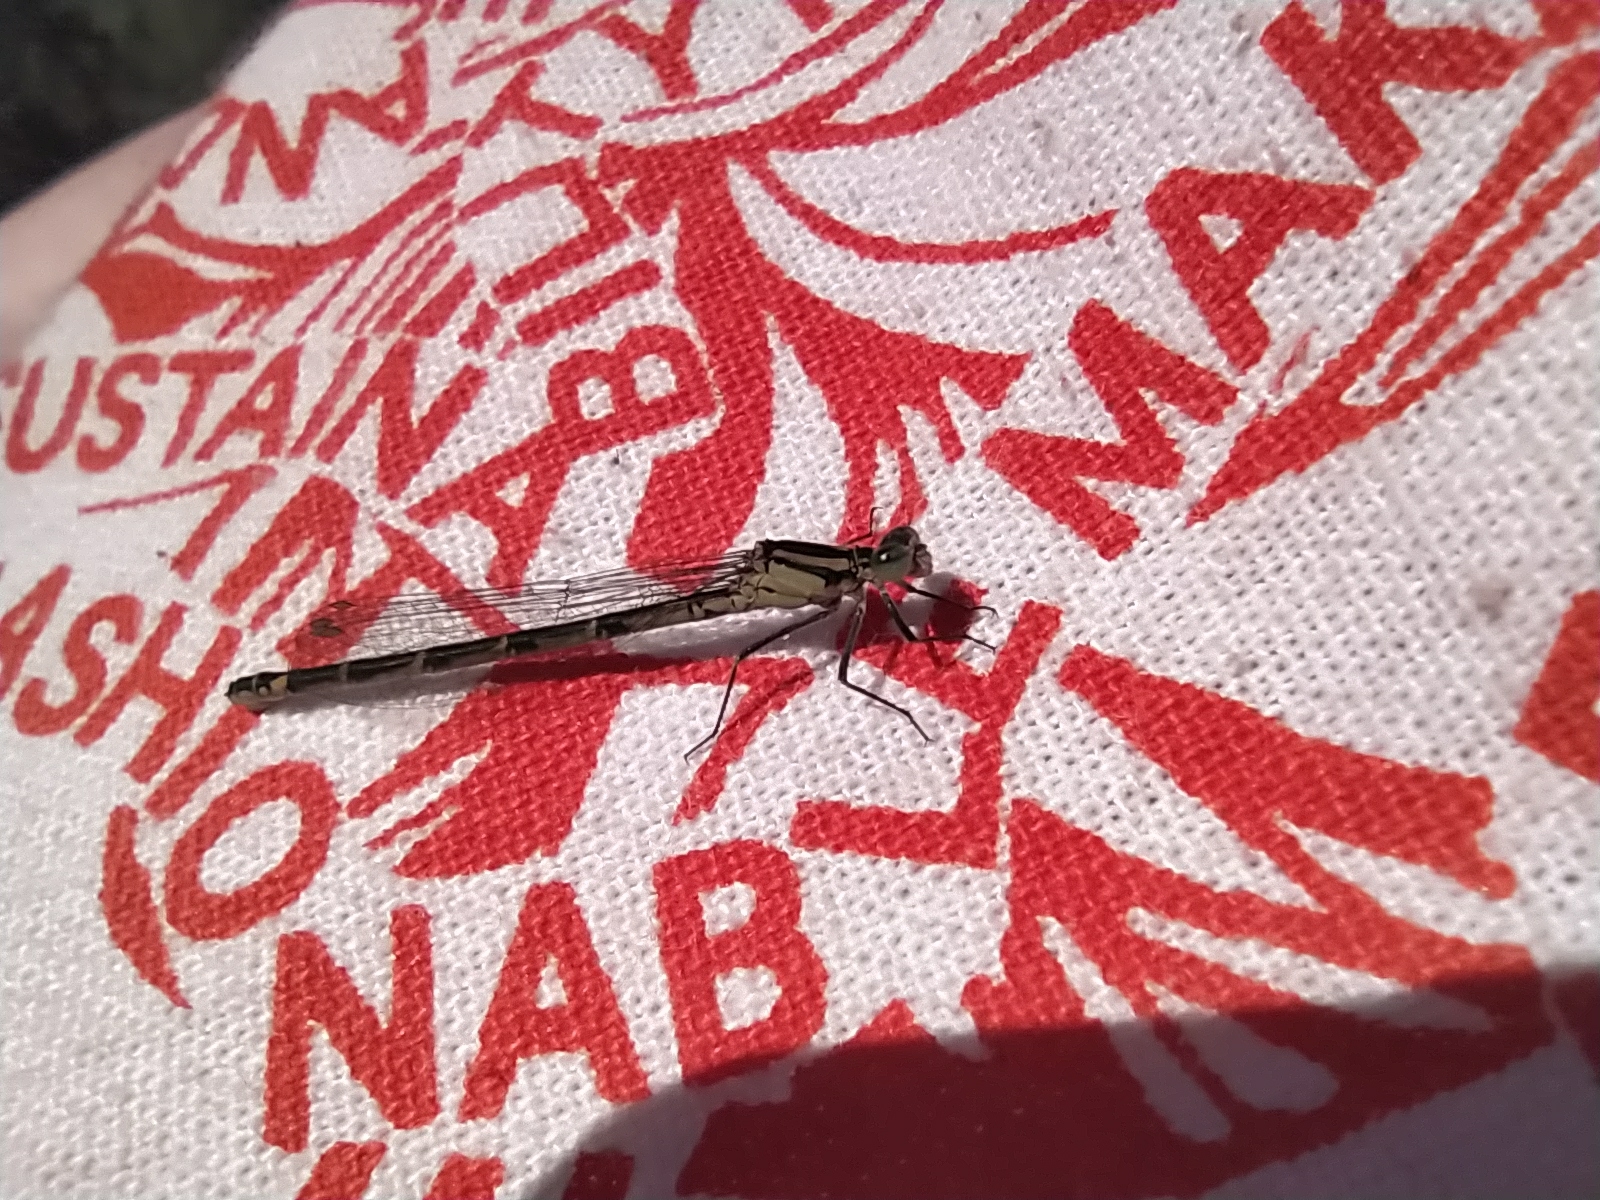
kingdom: Animalia
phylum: Arthropoda
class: Insecta
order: Odonata
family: Coenagrionidae
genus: Enallagma
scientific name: Enallagma cyathigerum
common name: Common blue damselfly
